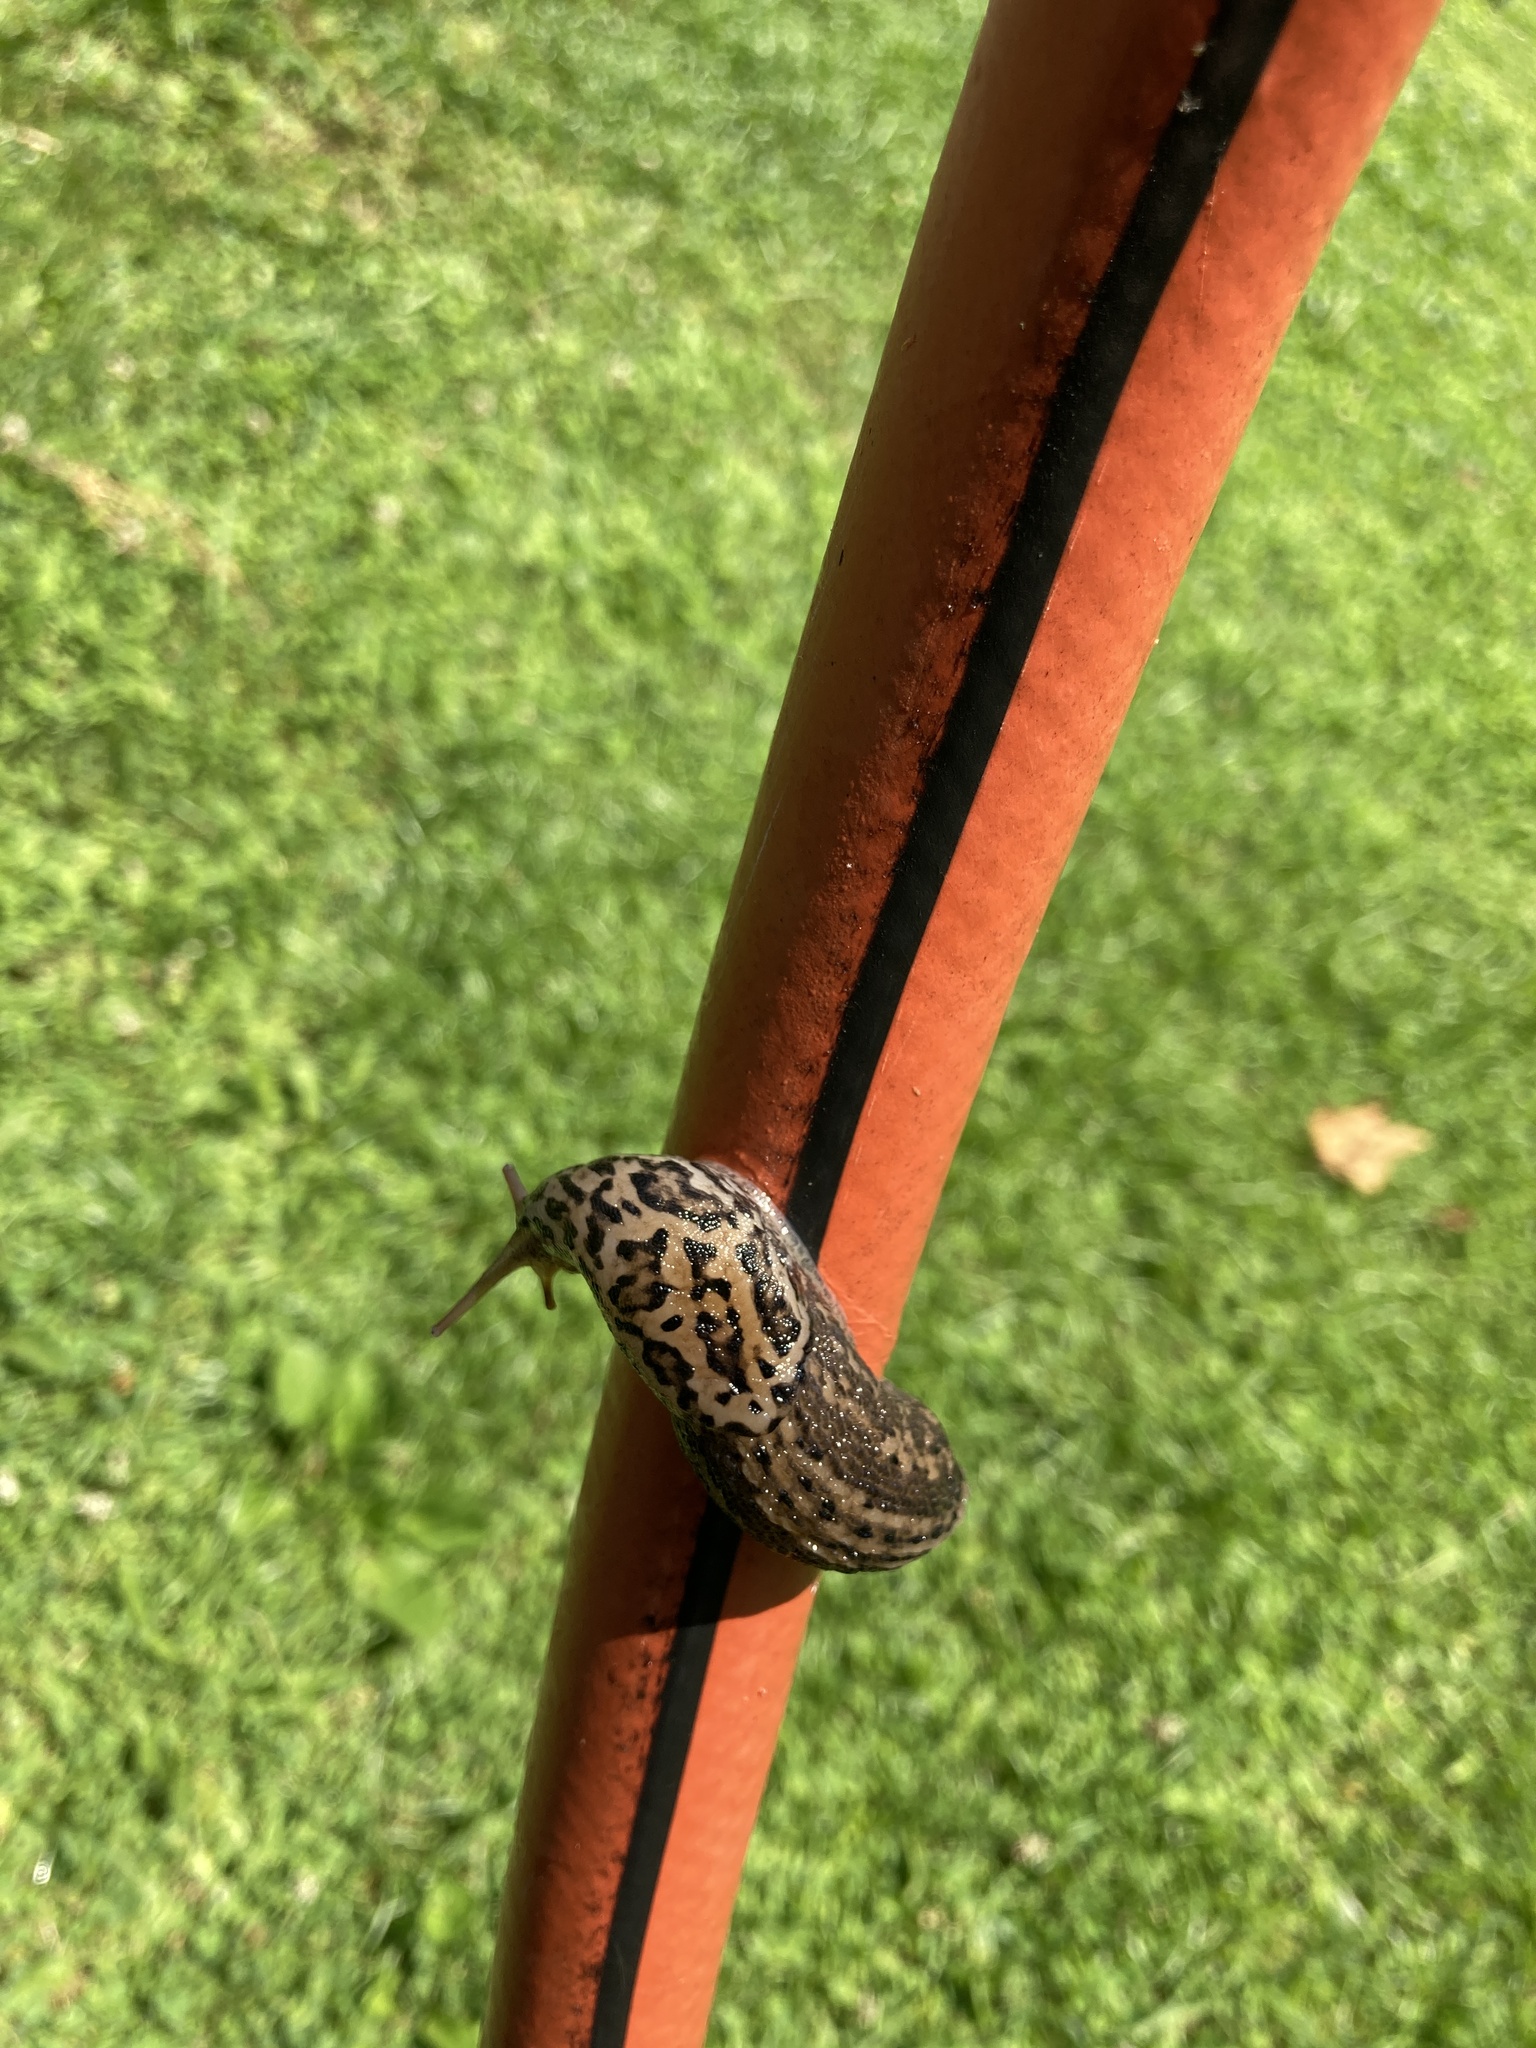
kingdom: Animalia
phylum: Mollusca
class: Gastropoda
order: Stylommatophora
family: Limacidae
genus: Limax
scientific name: Limax maximus
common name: Great grey slug
